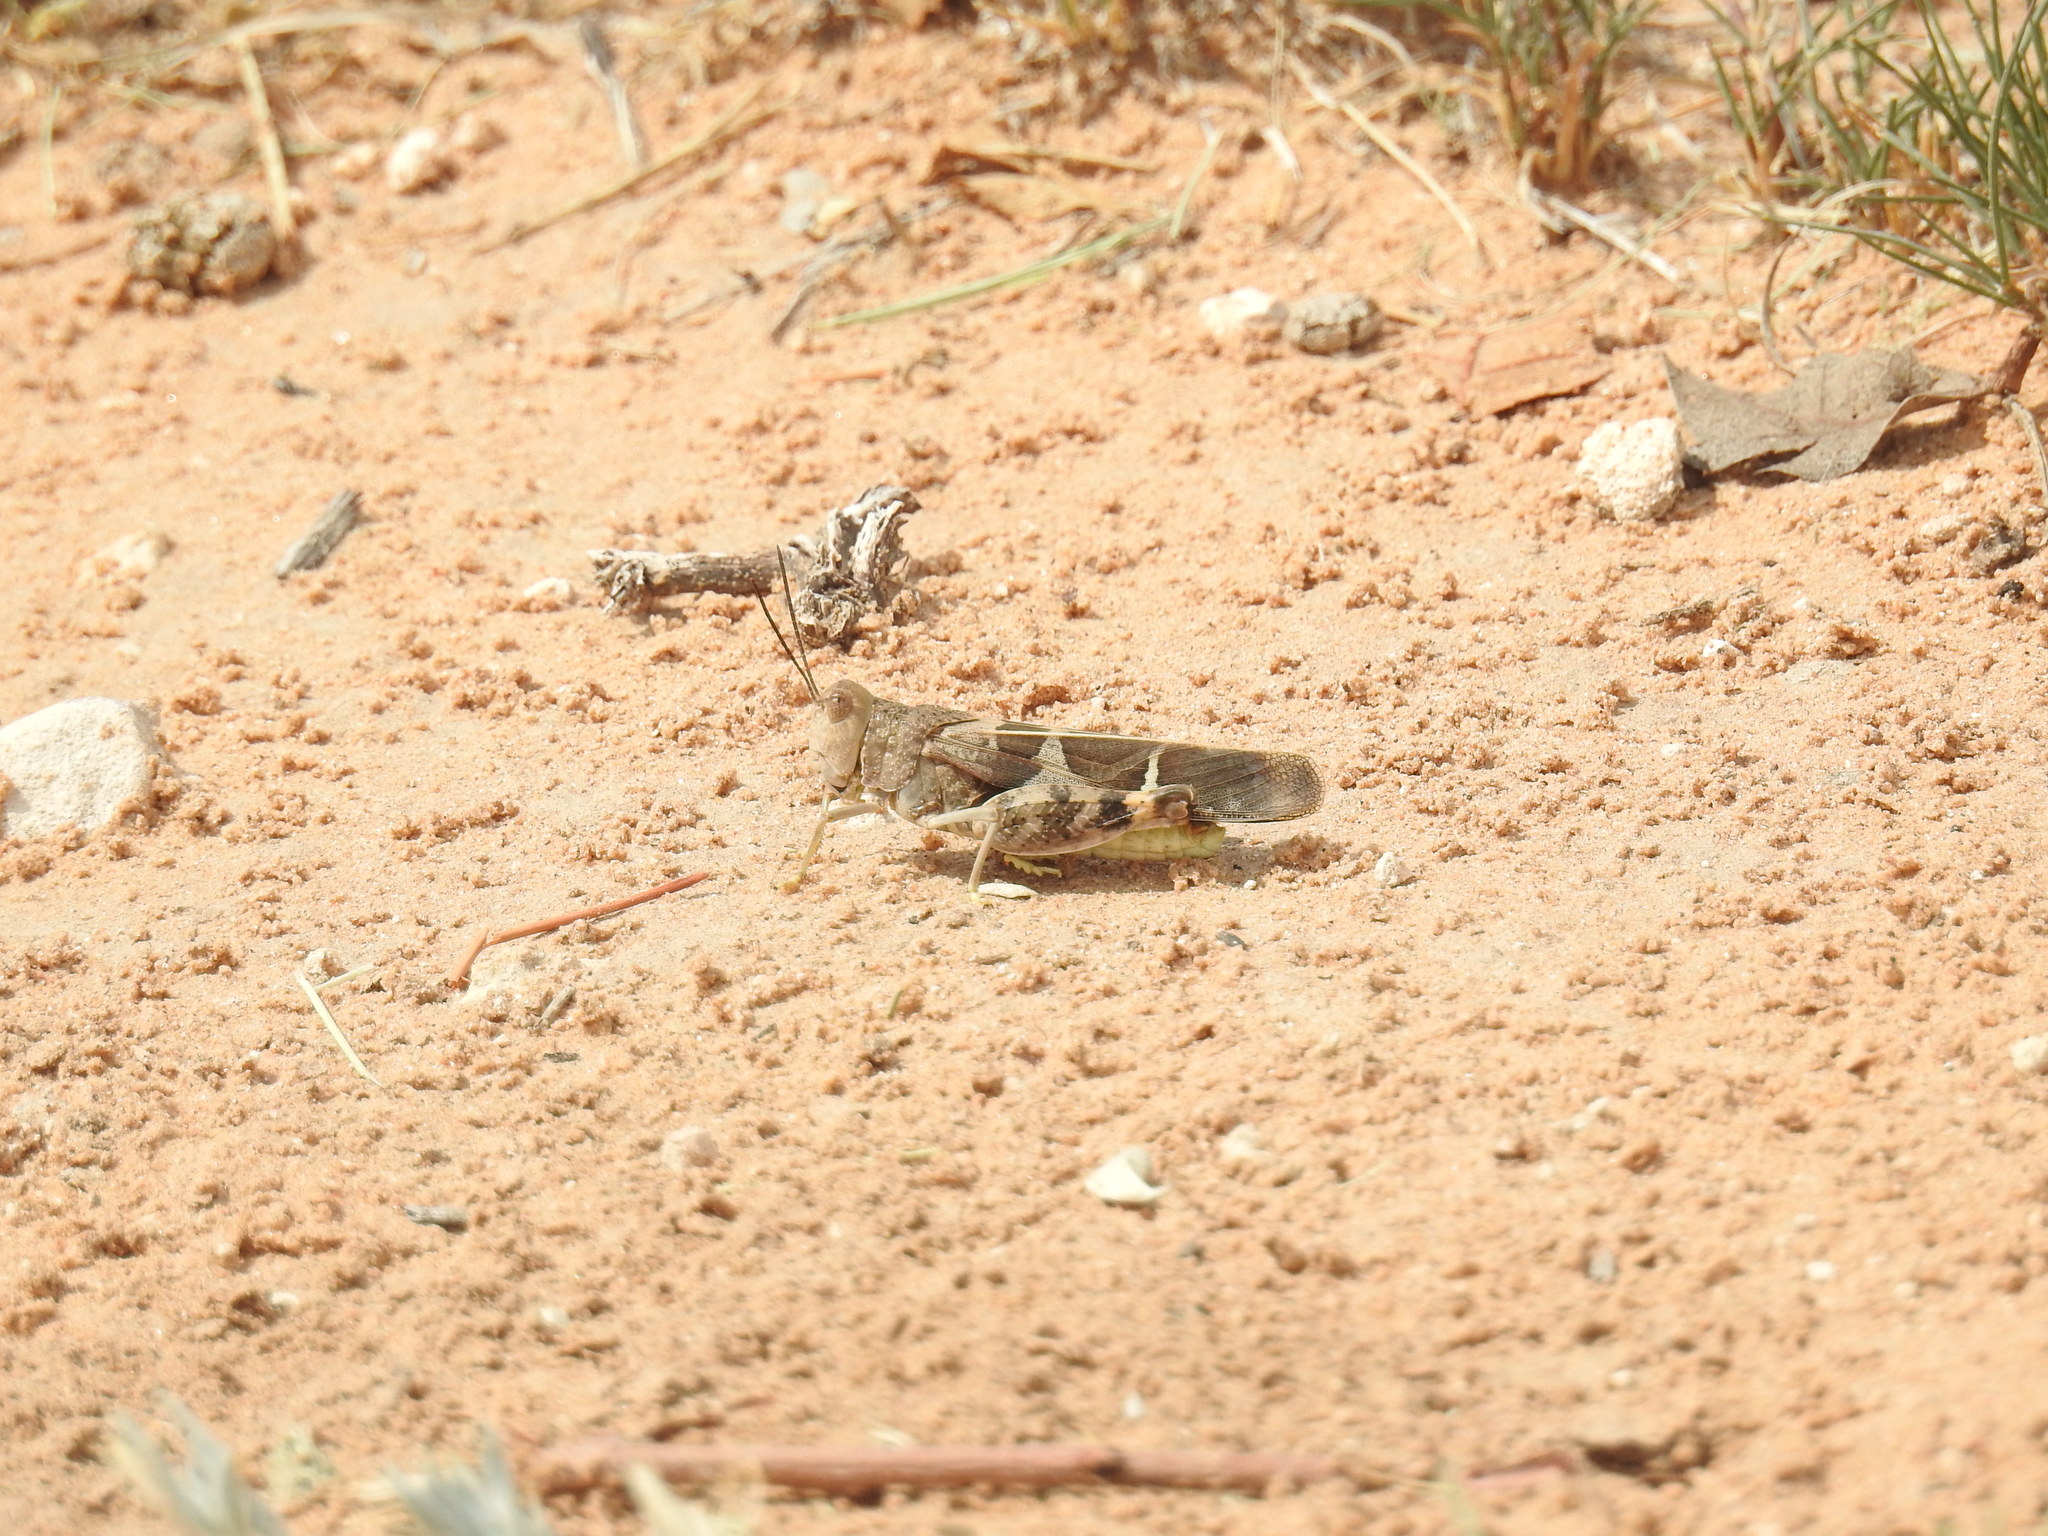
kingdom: Animalia
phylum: Arthropoda
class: Insecta
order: Orthoptera
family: Acrididae
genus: Leprus
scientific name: Leprus wheelerii
